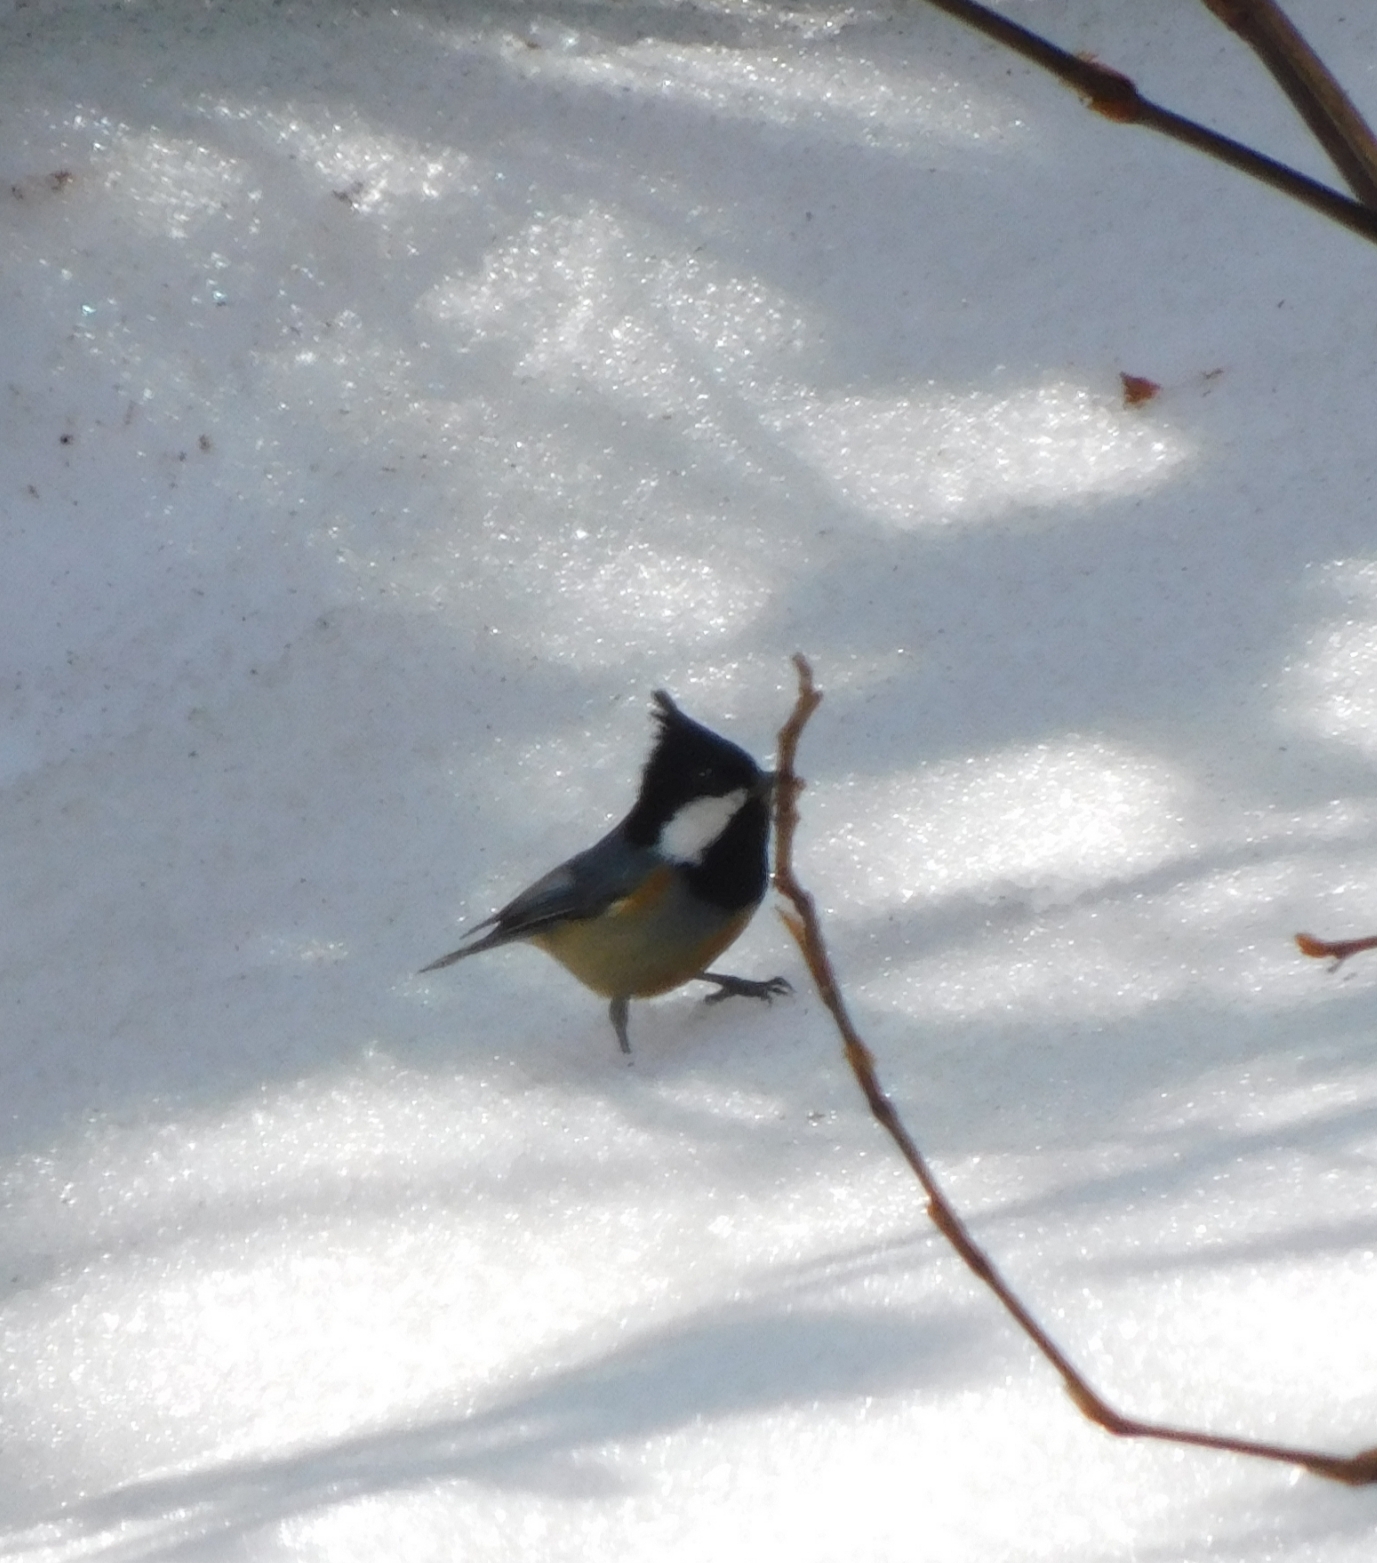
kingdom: Animalia
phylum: Chordata
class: Aves
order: Passeriformes
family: Paridae
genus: Parus
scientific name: Parus monticolus
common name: Green-backed tit
